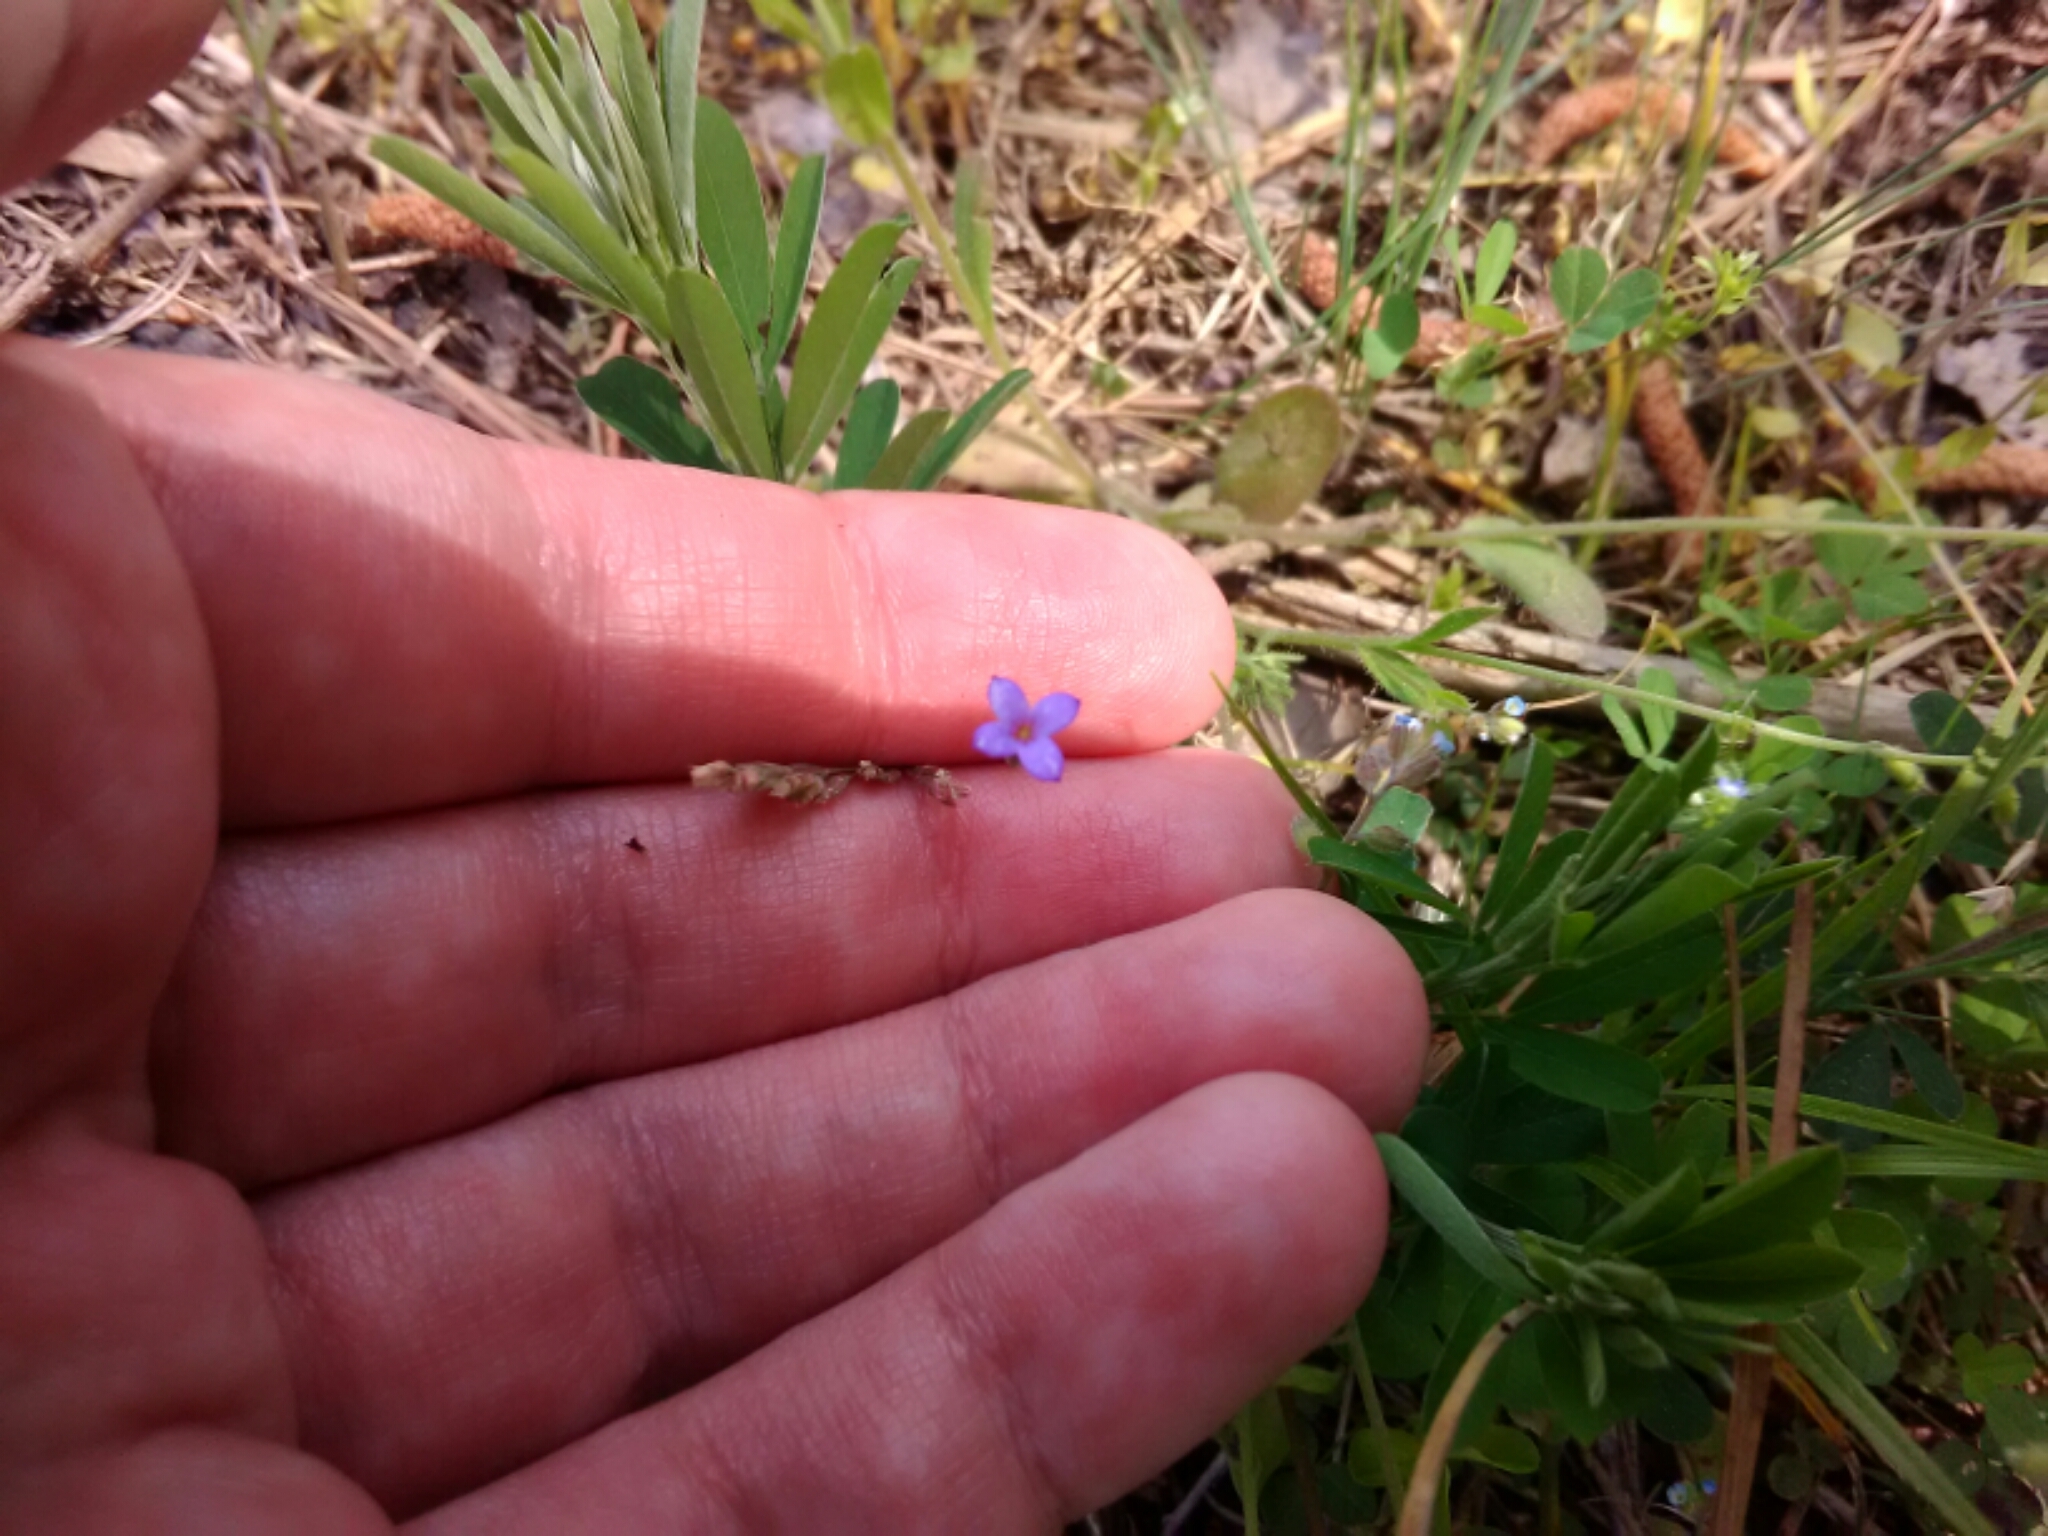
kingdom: Plantae
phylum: Tracheophyta
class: Magnoliopsida
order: Gentianales
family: Rubiaceae
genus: Houstonia
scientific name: Houstonia pusilla
